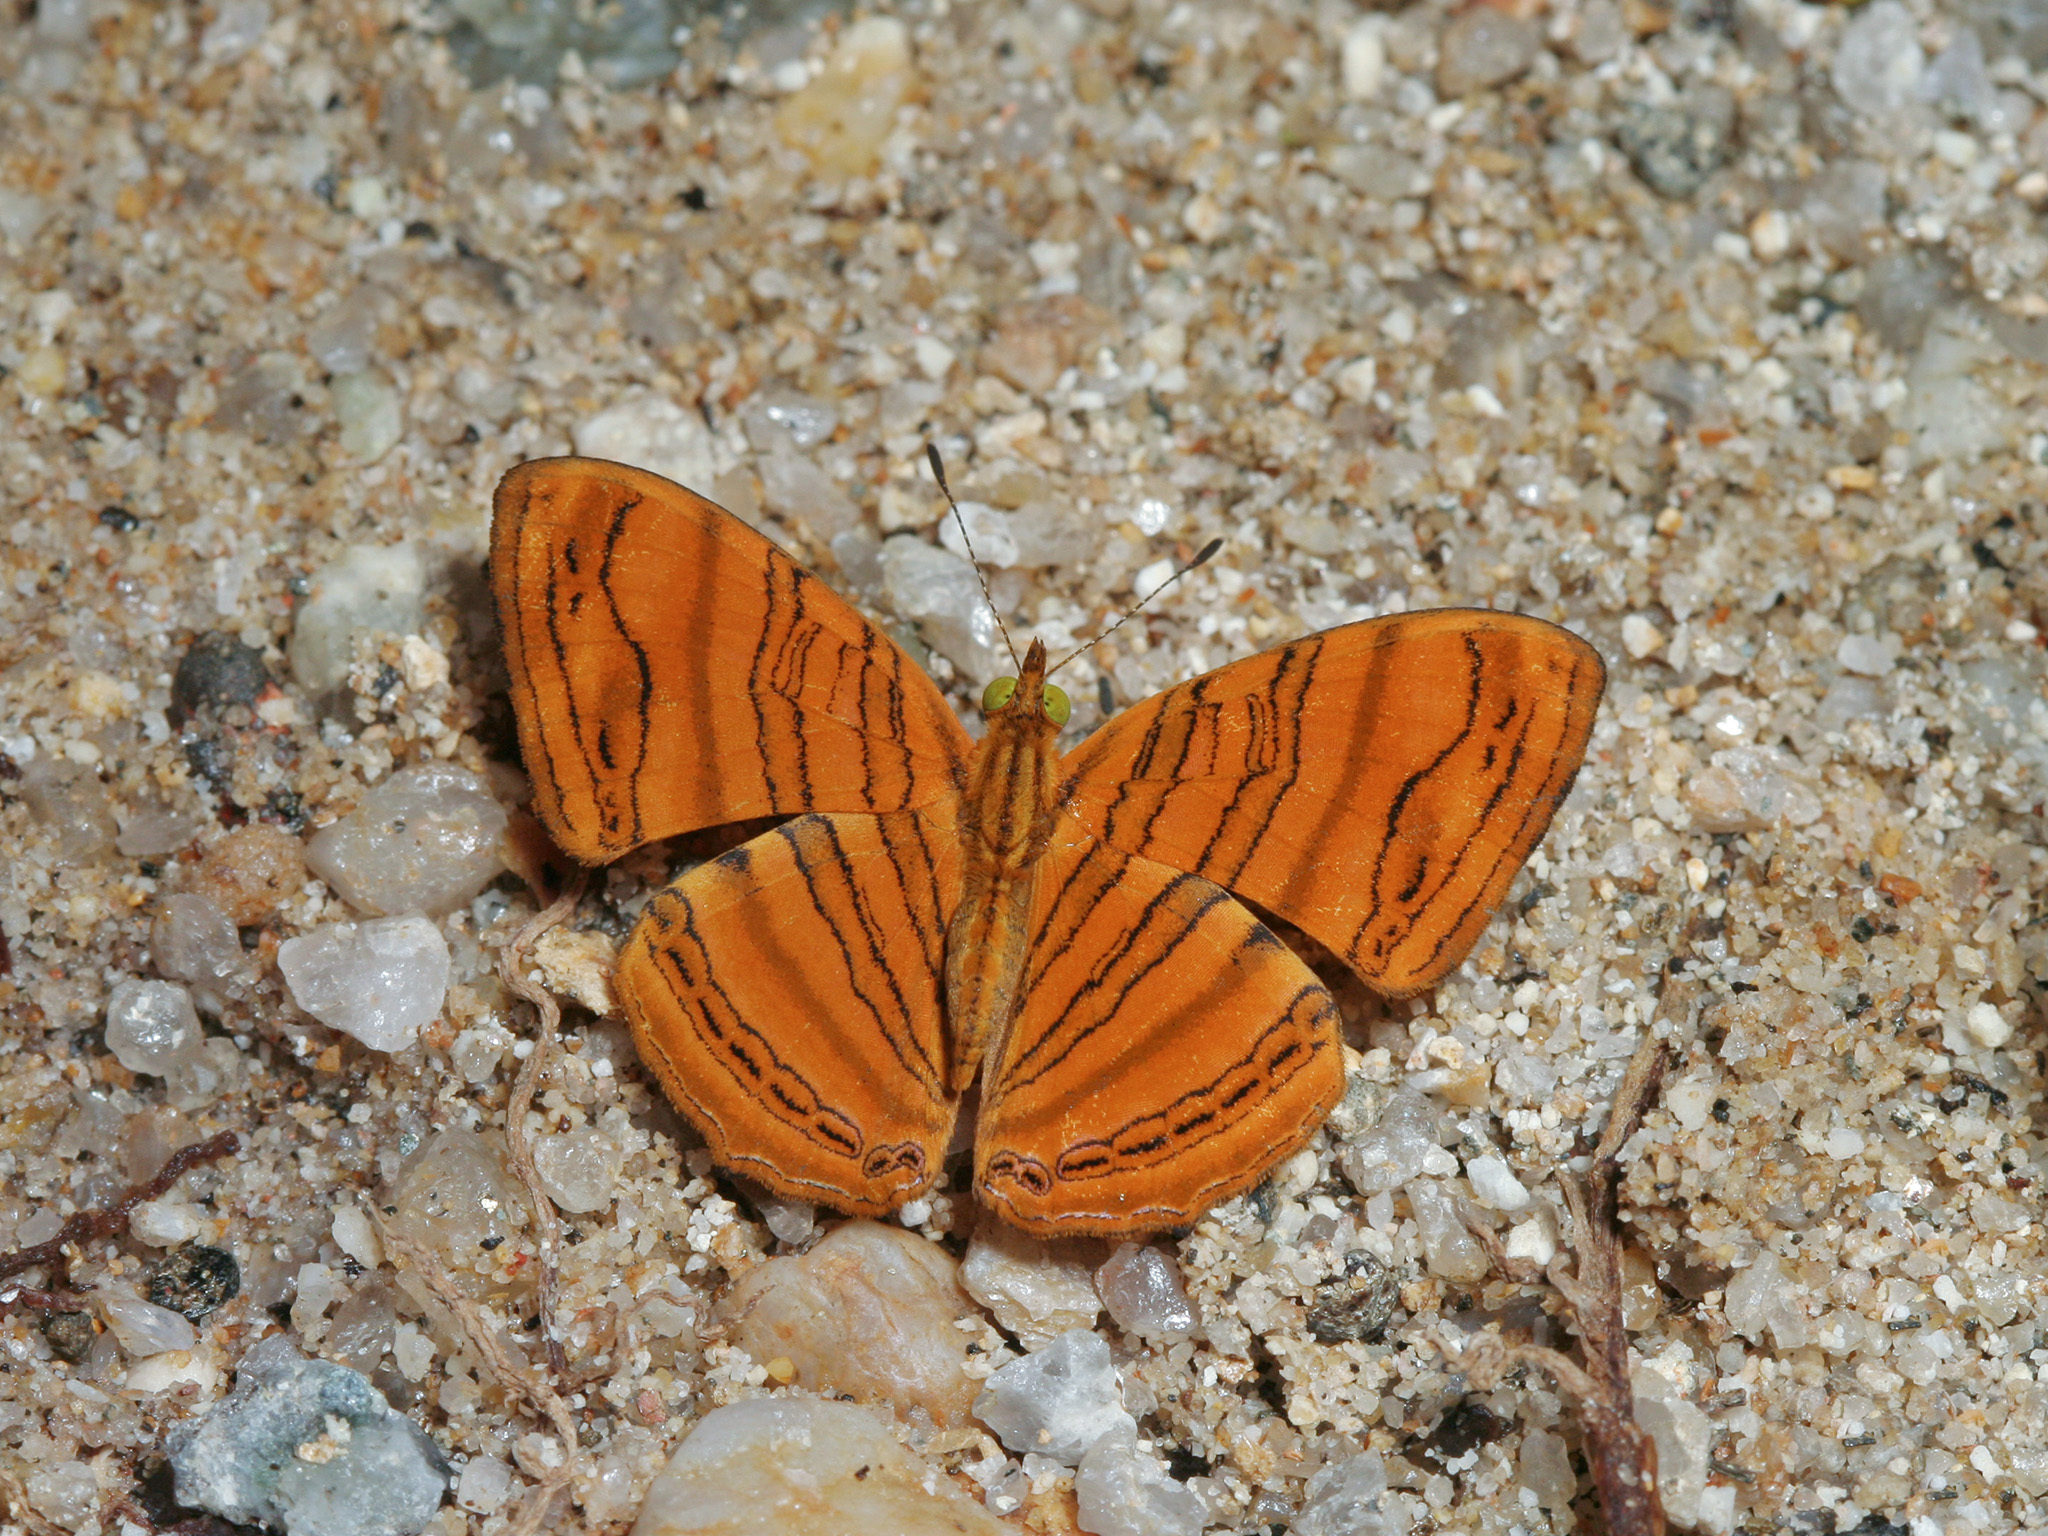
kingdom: Animalia
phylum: Arthropoda
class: Insecta
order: Lepidoptera
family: Nymphalidae
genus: Chersonesia
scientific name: Chersonesia intermedia
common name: Intermediate maplet
